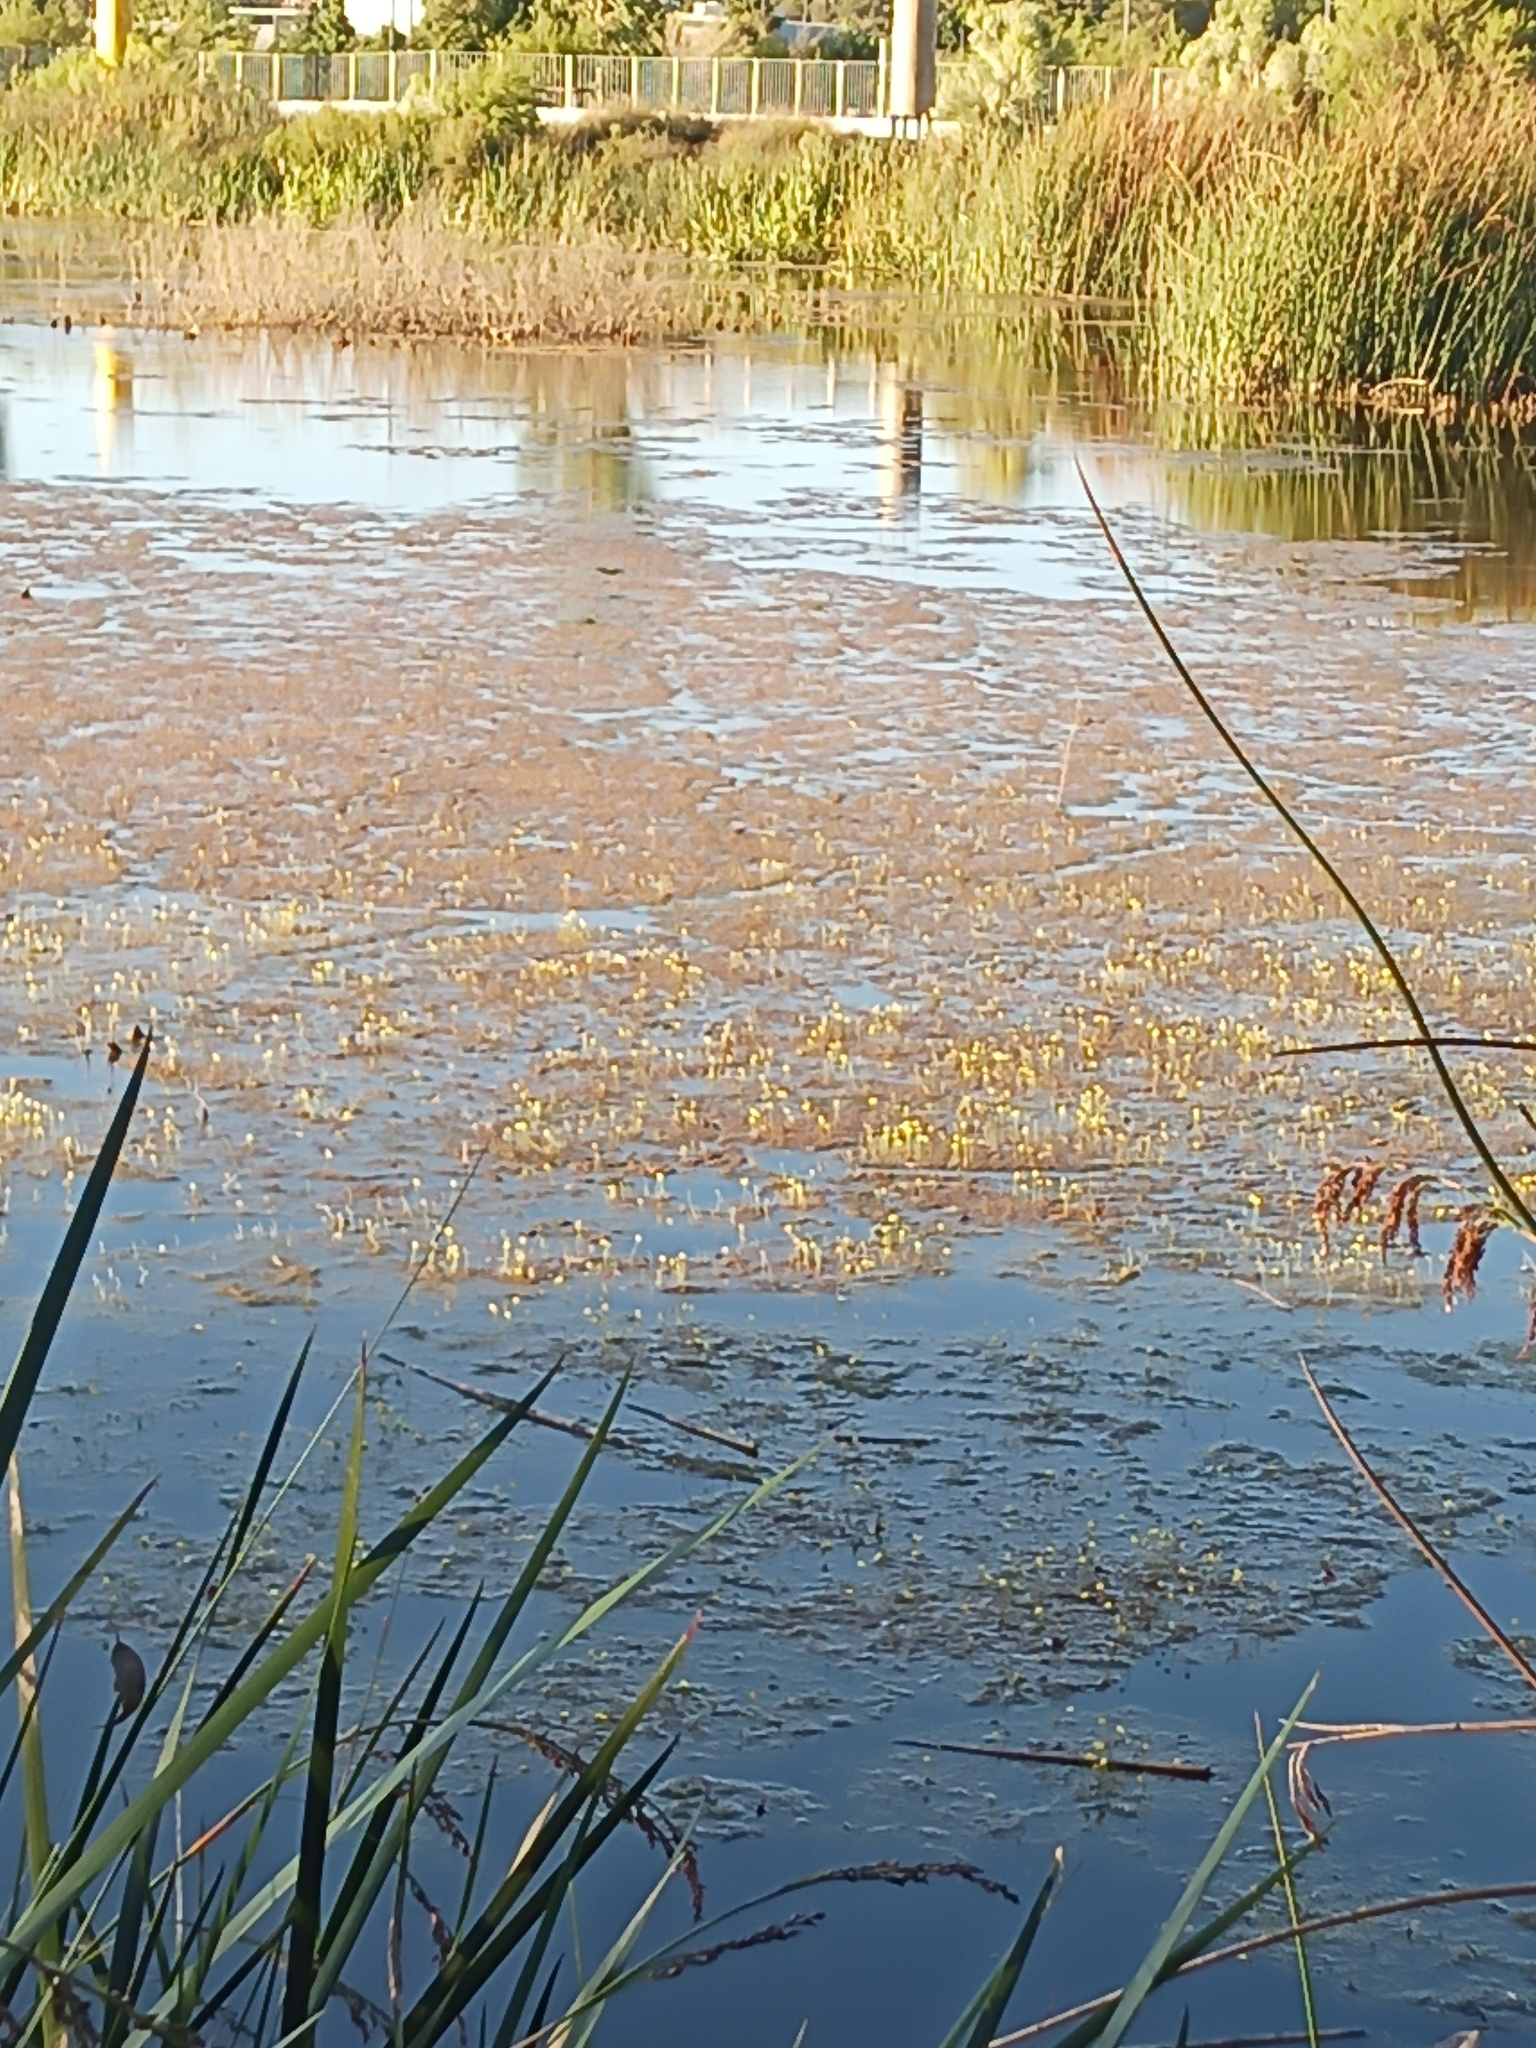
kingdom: Plantae
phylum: Tracheophyta
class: Magnoliopsida
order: Lamiales
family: Lentibulariaceae
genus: Utricularia
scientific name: Utricularia gibba
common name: Humped bladderwort
